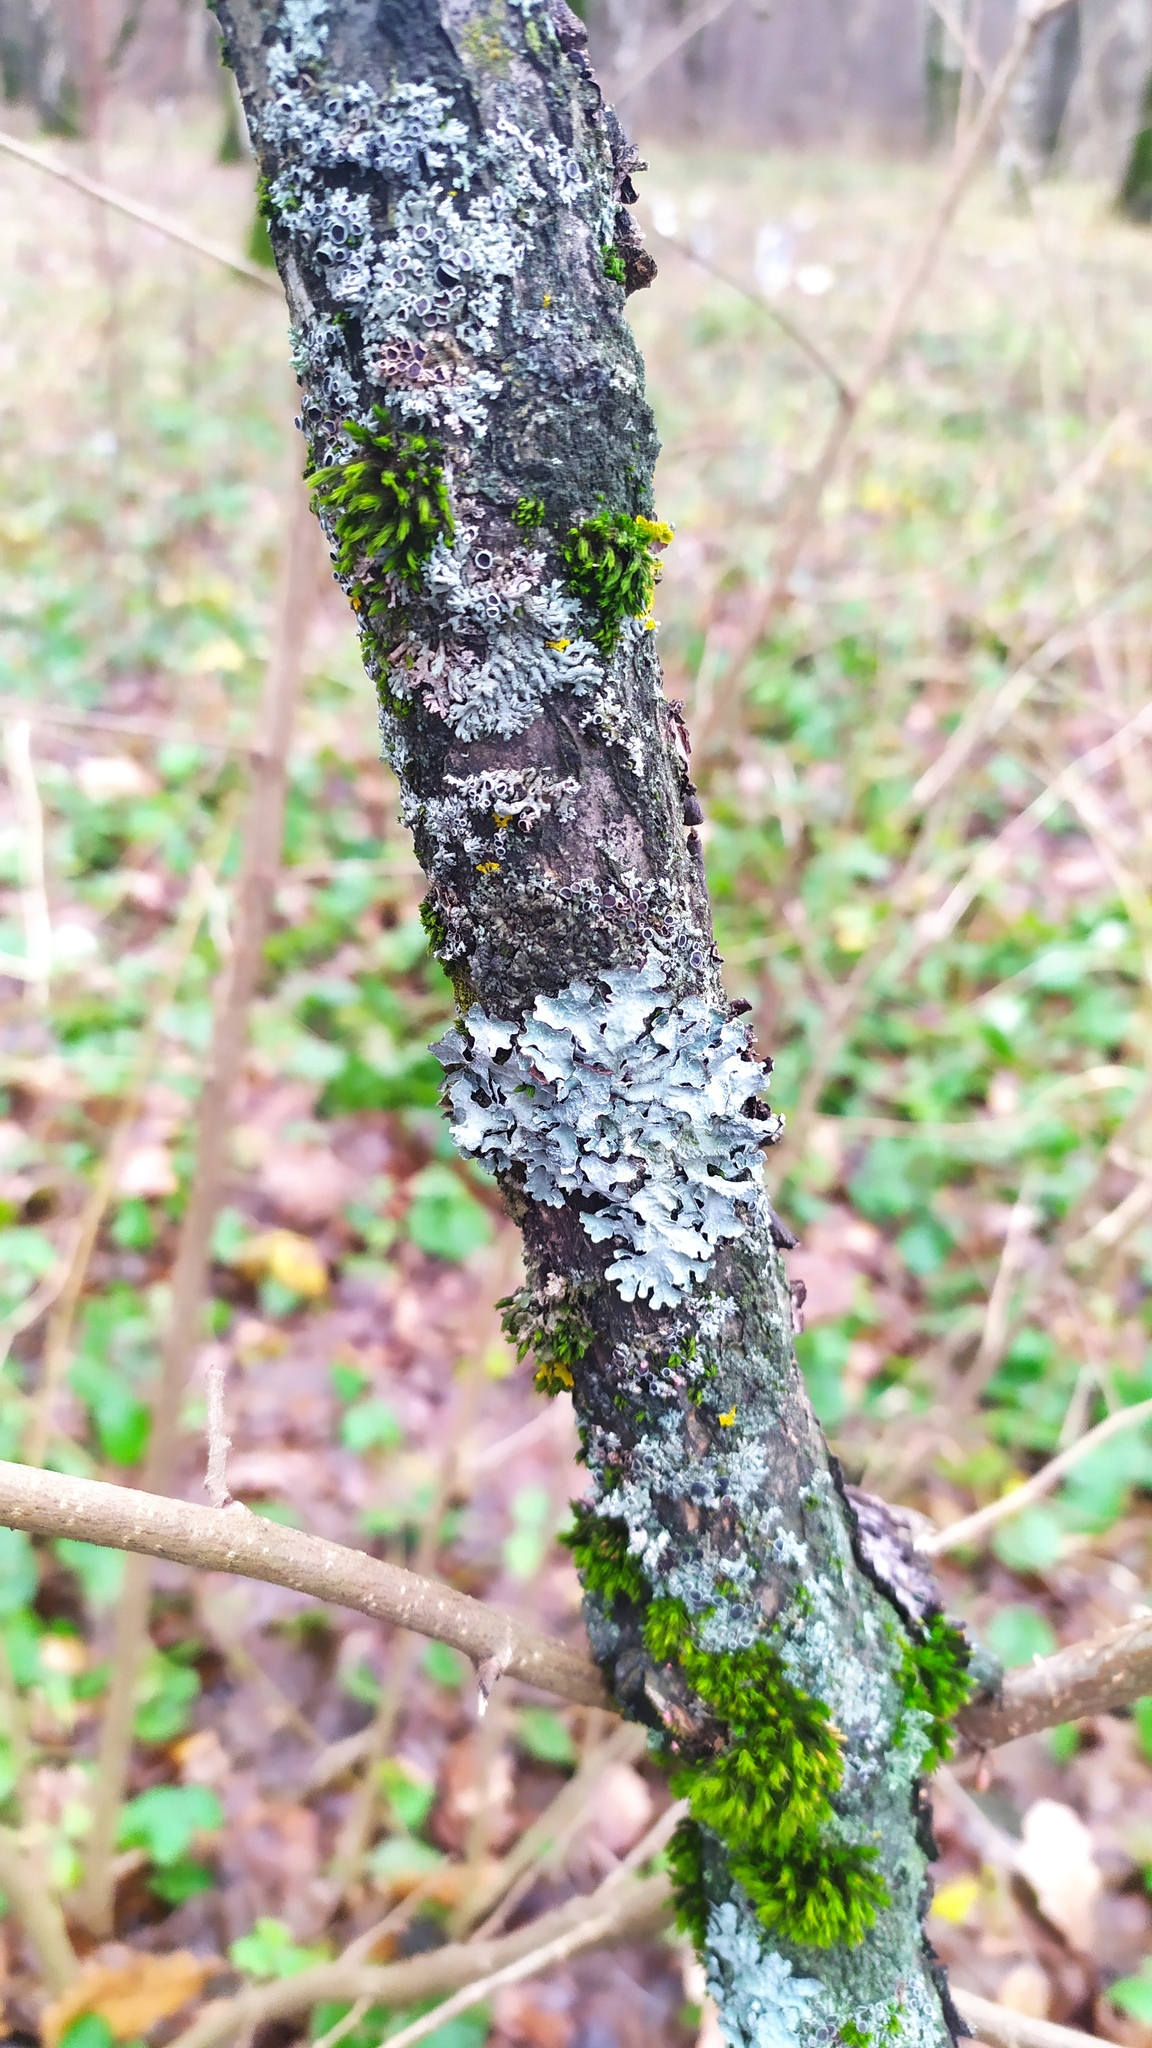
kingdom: Fungi
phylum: Ascomycota
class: Lecanoromycetes
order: Lecanorales
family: Parmeliaceae
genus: Parmelia
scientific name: Parmelia sulcata
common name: Netted shield lichen
